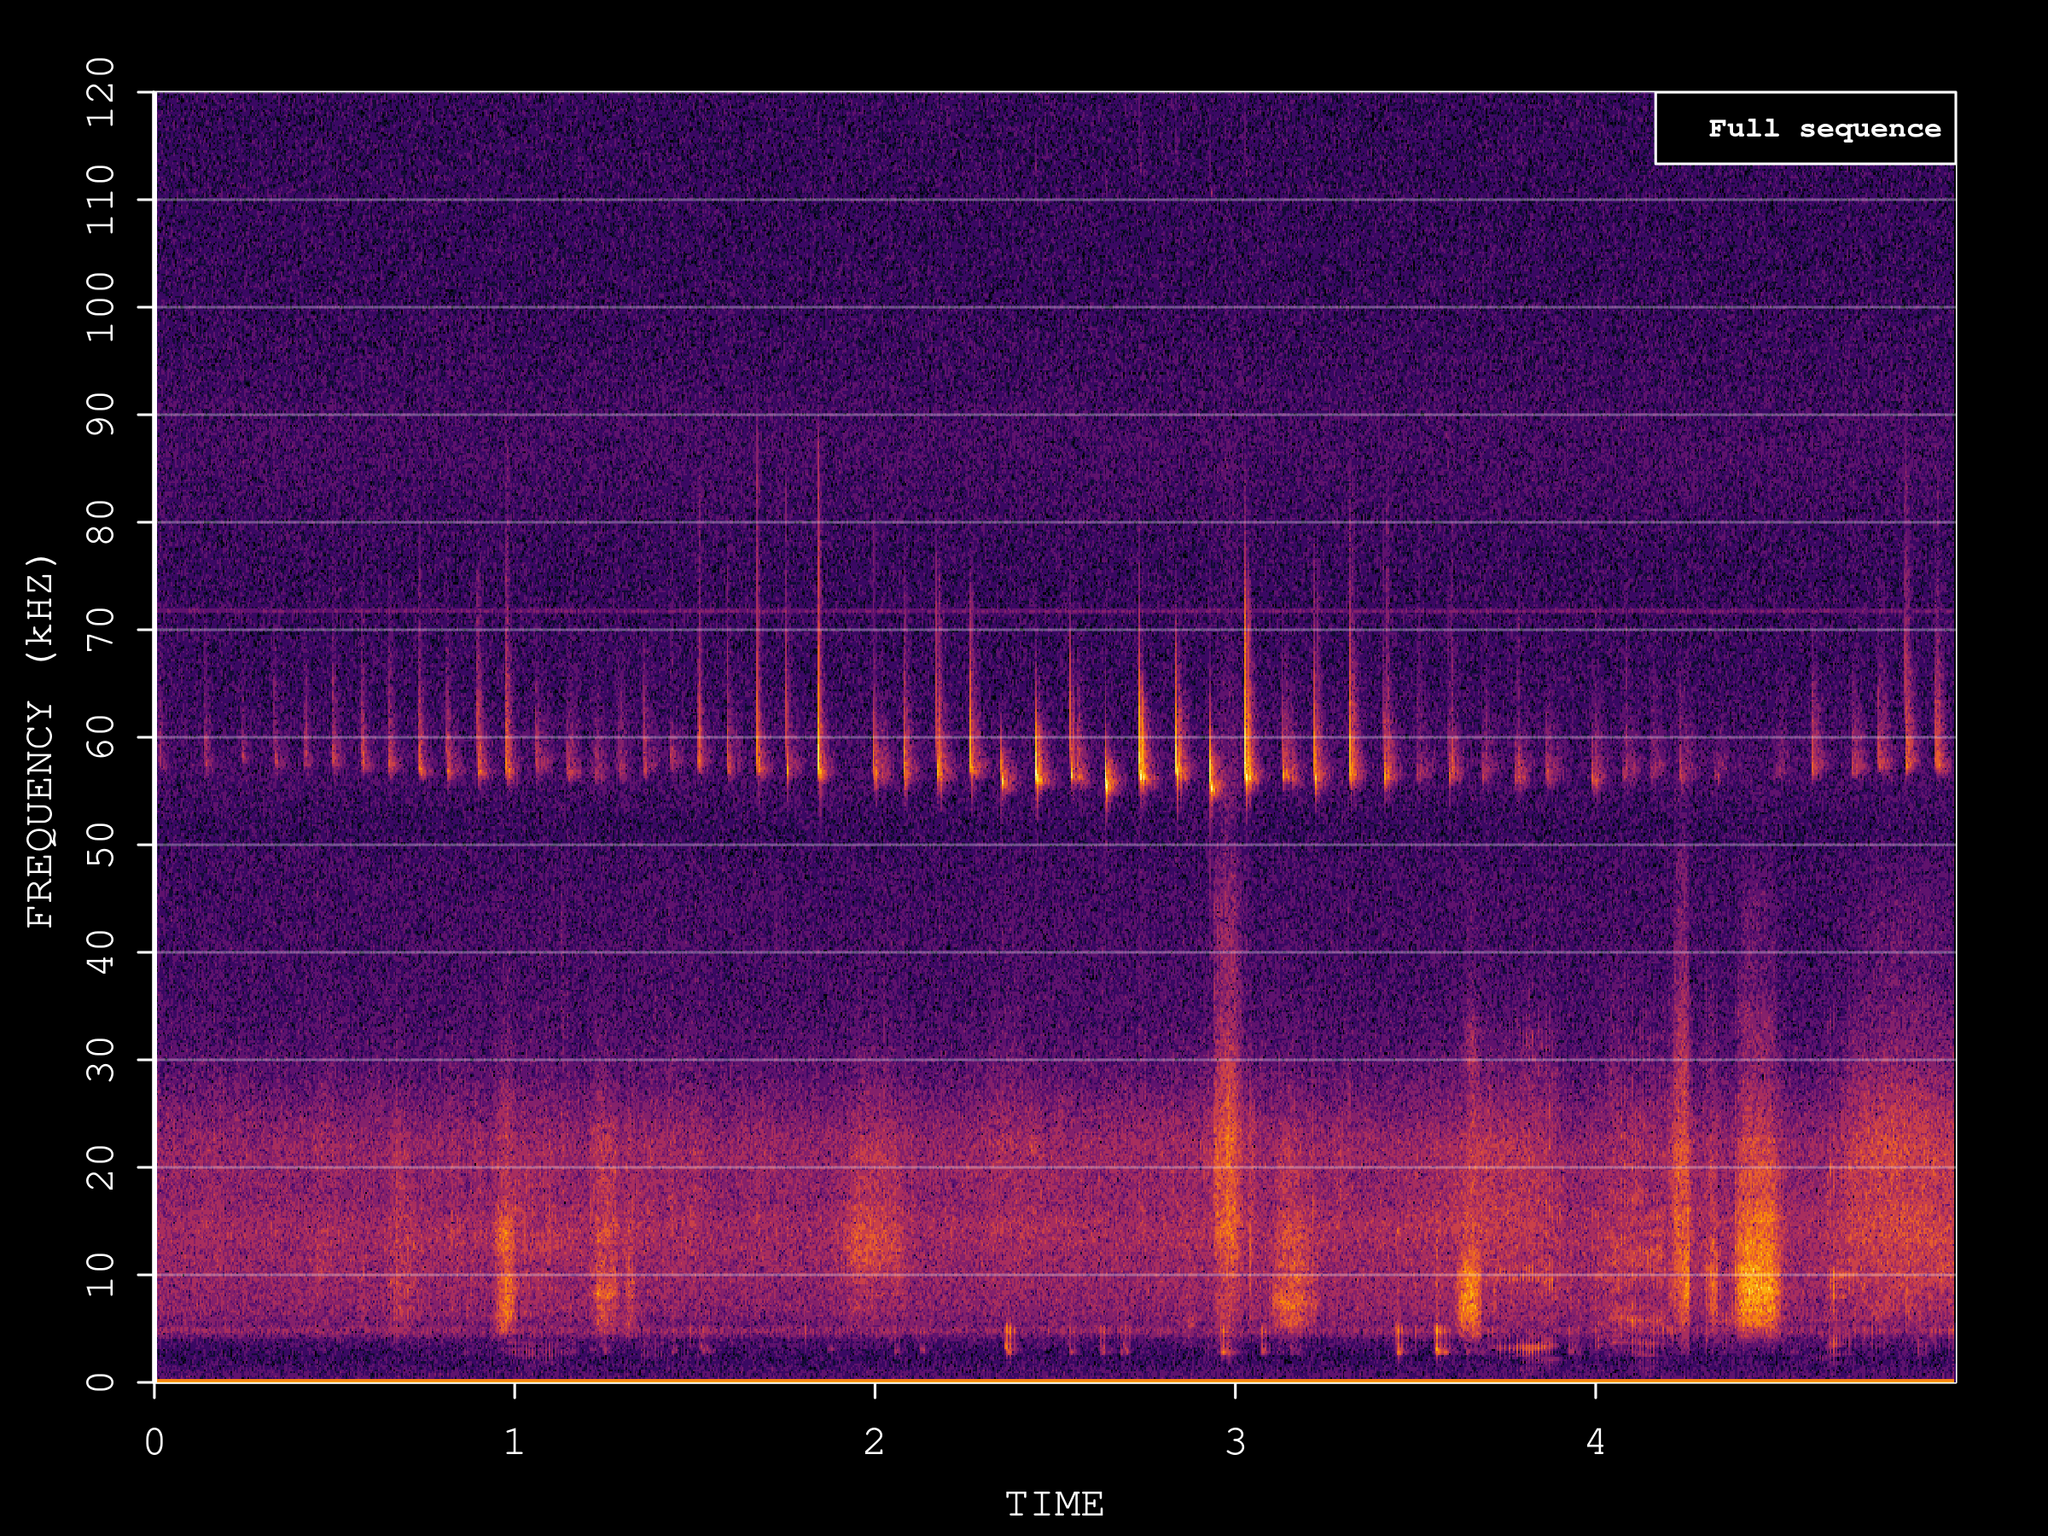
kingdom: Animalia
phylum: Chordata
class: Mammalia
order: Chiroptera
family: Vespertilionidae
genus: Pipistrellus
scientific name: Pipistrellus pygmaeus
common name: Soprano pipistrelle
